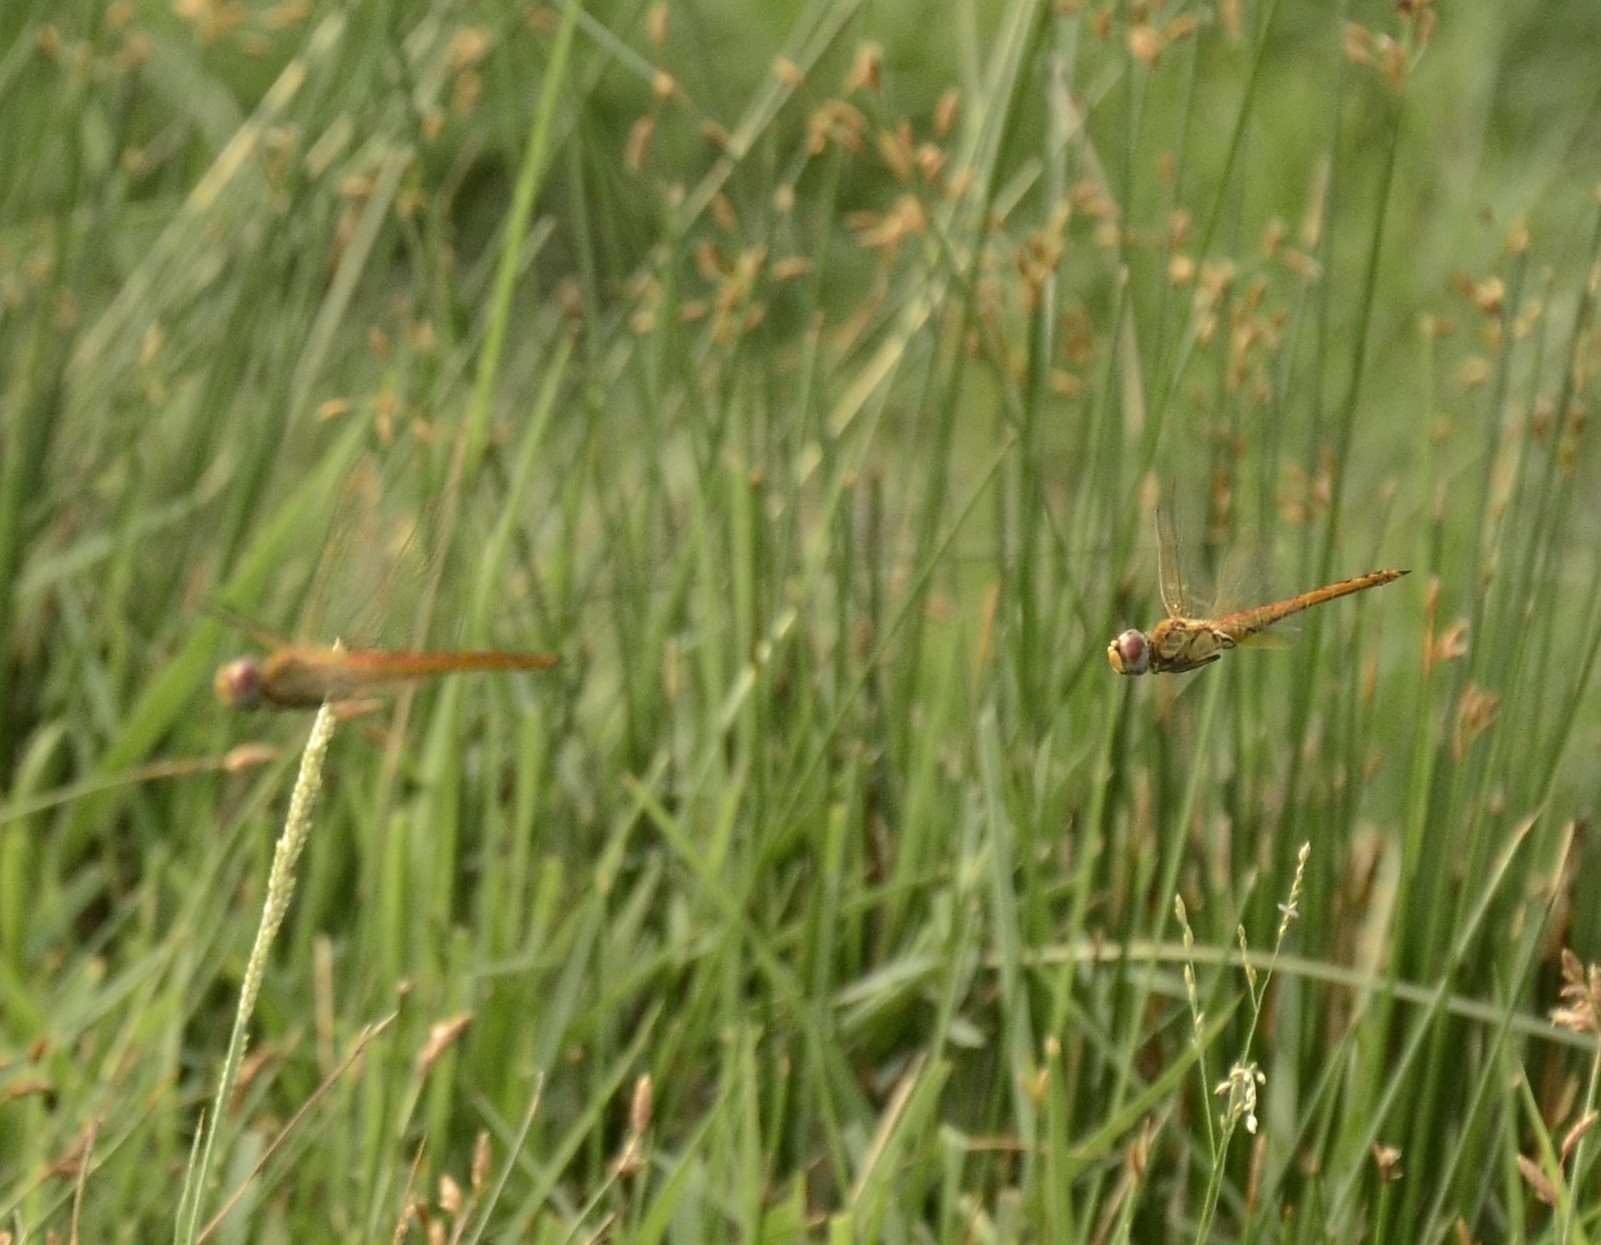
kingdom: Animalia
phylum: Arthropoda
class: Insecta
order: Odonata
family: Libellulidae
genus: Pantala
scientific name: Pantala flavescens
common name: Wandering glider
